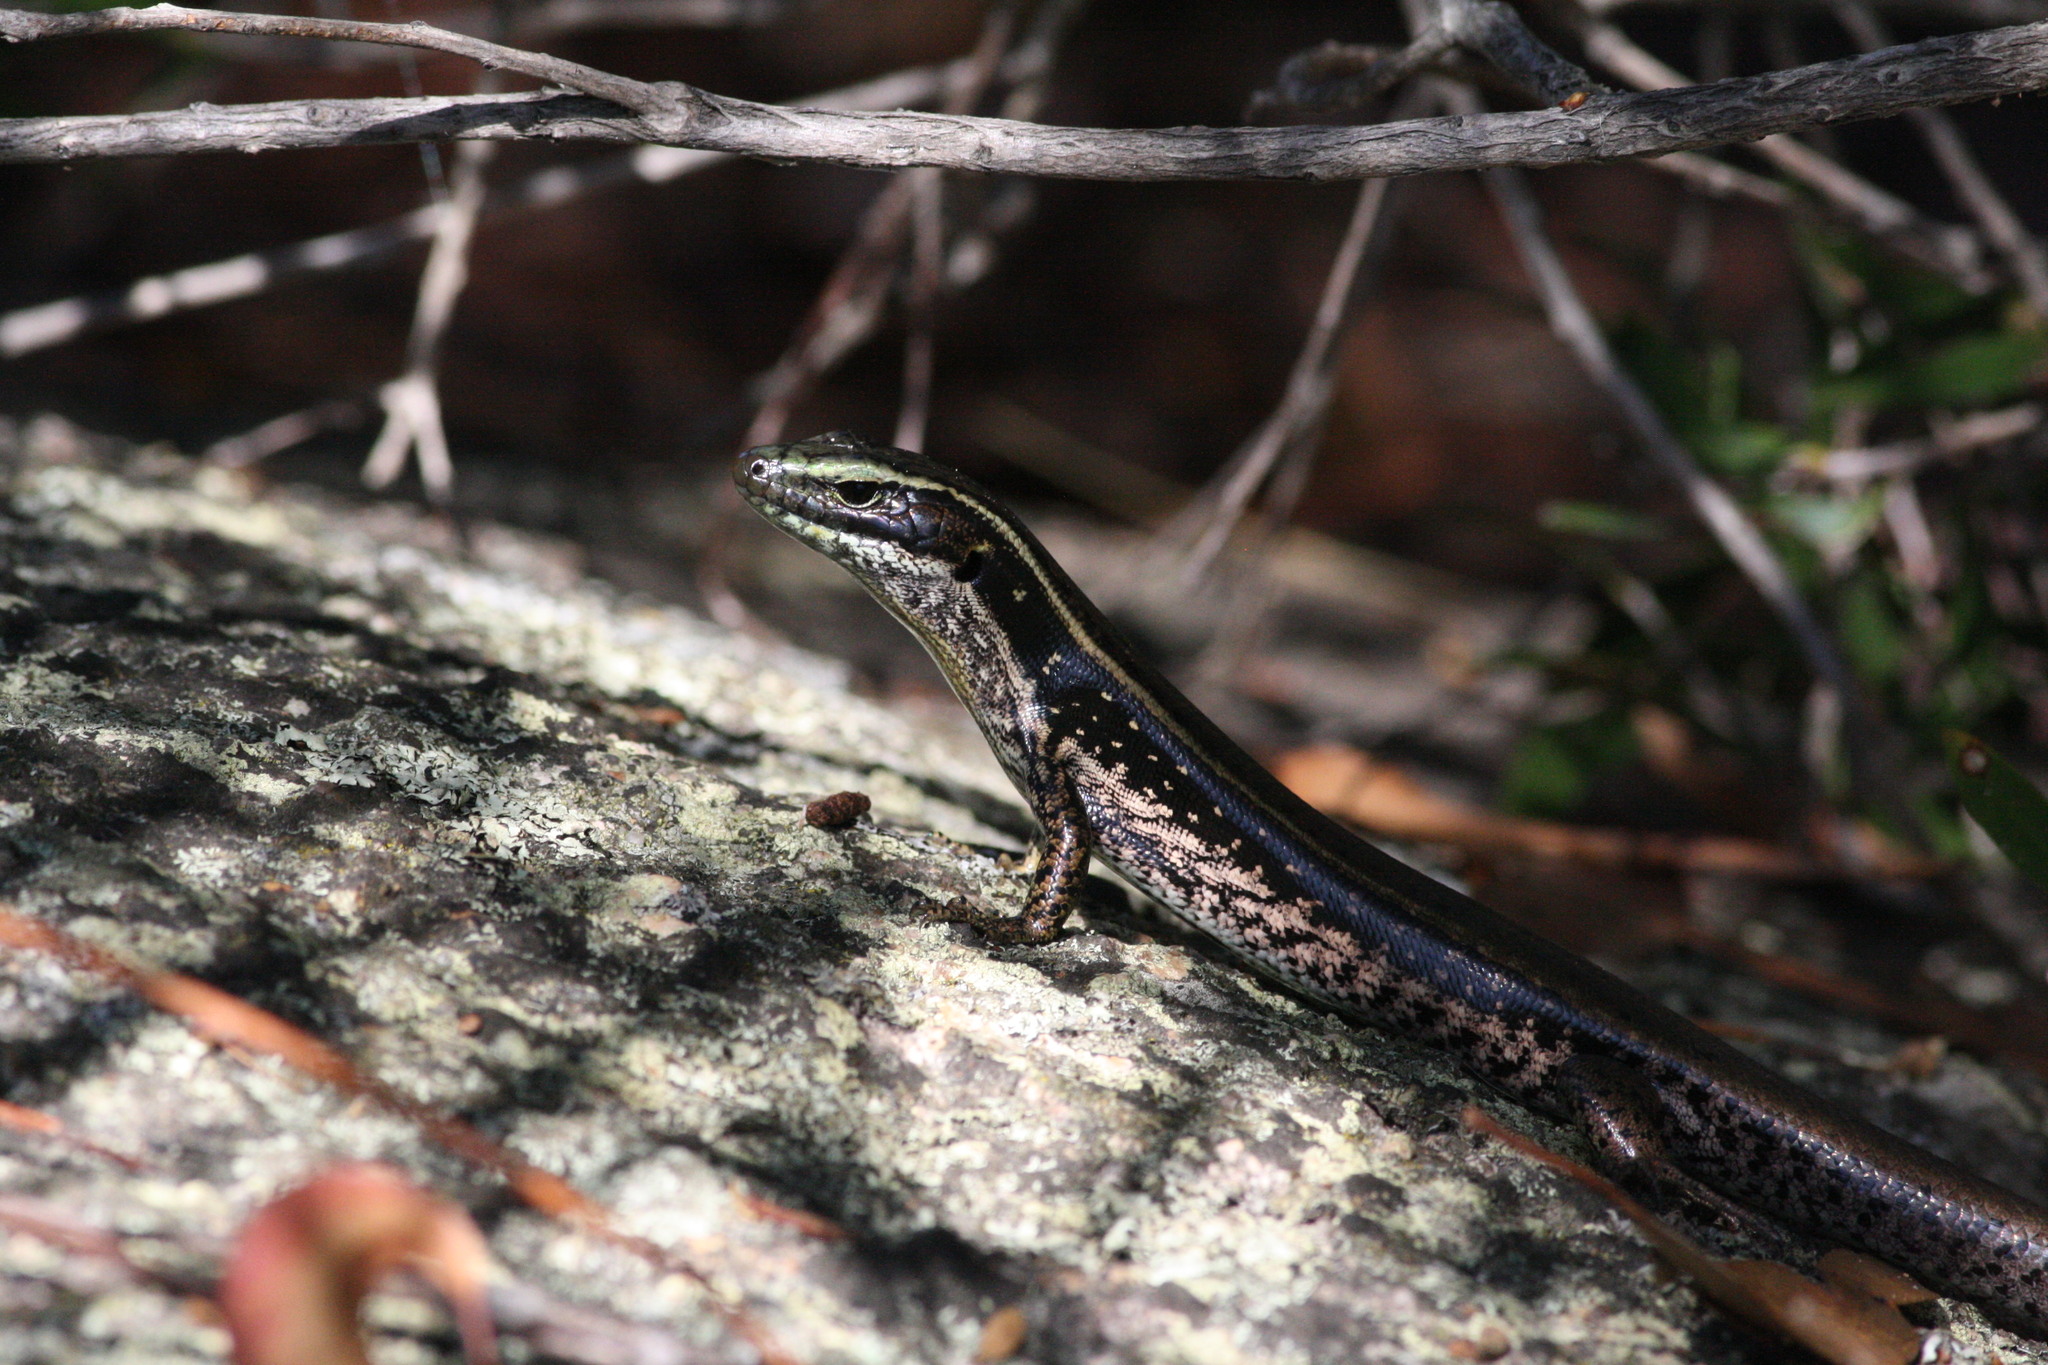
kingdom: Animalia
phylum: Chordata
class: Squamata
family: Scincidae
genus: Eulamprus
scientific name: Eulamprus quoyii
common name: Eastern water skink
